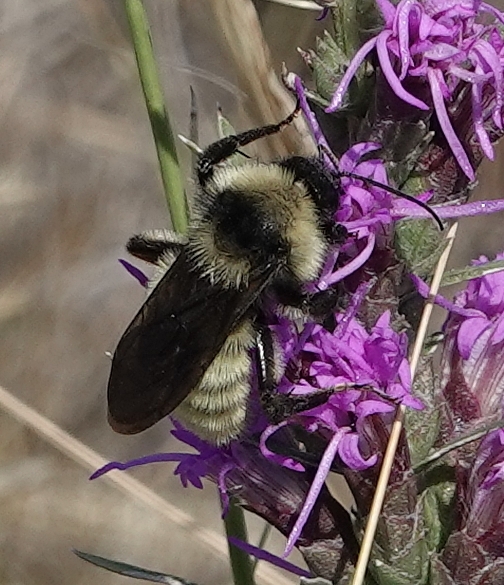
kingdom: Animalia
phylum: Arthropoda
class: Insecta
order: Hymenoptera
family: Apidae
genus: Bombus
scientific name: Bombus pensylvanicus
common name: Bumble bee
